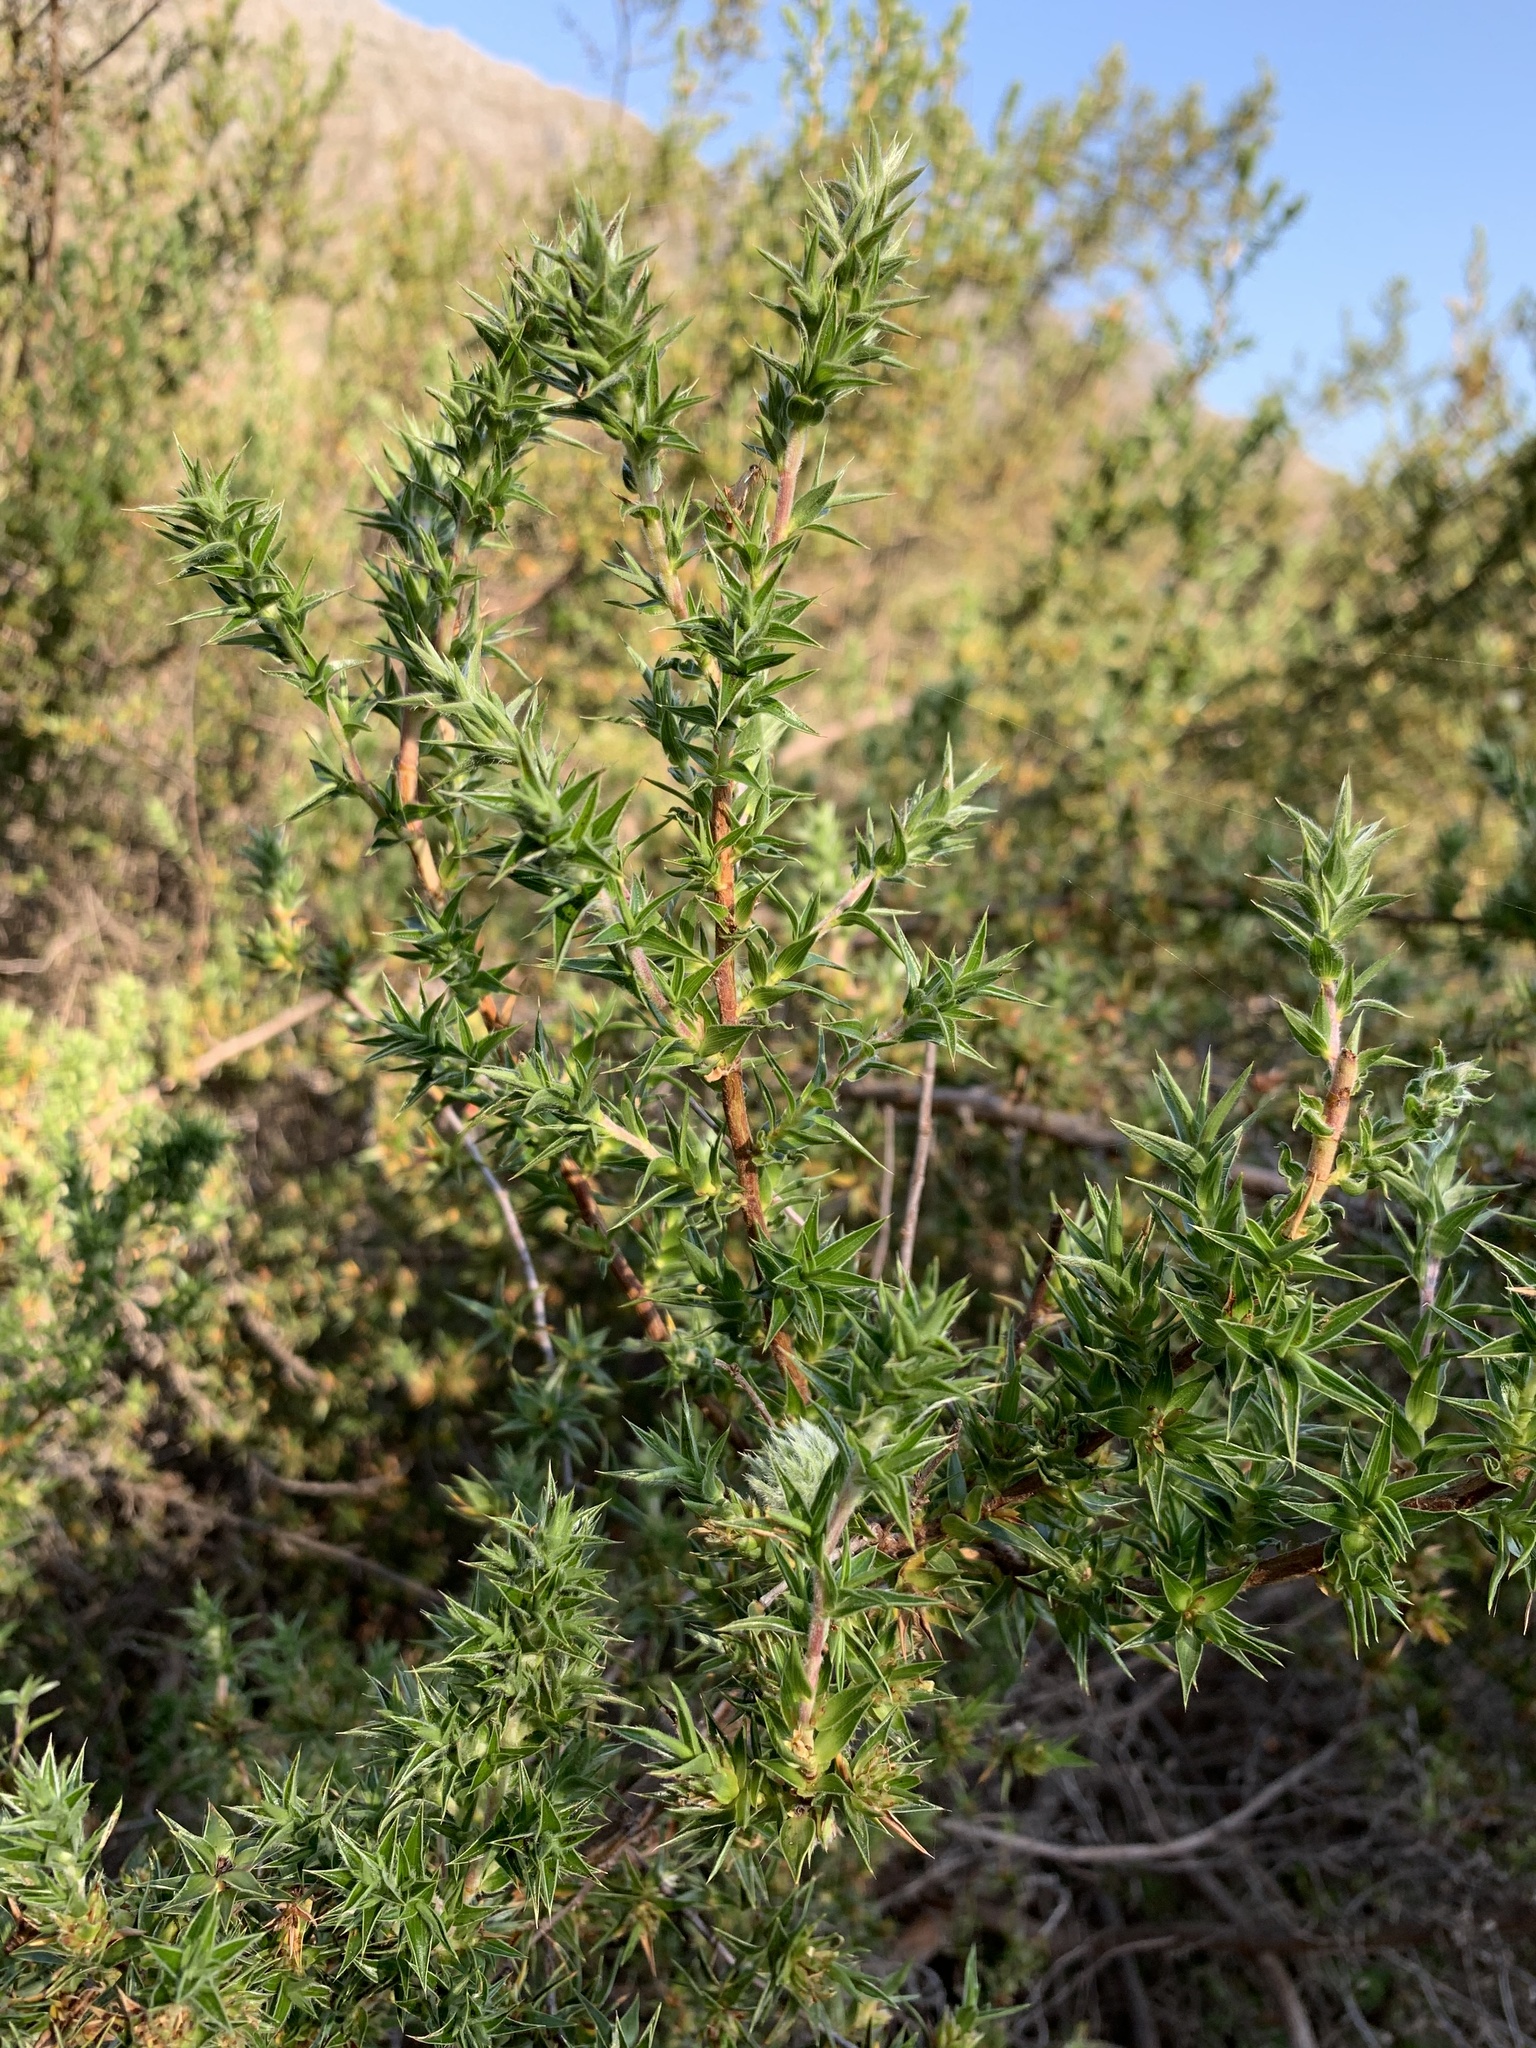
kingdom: Plantae
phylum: Tracheophyta
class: Magnoliopsida
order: Rosales
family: Rosaceae
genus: Cliffortia
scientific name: Cliffortia ruscifolia
